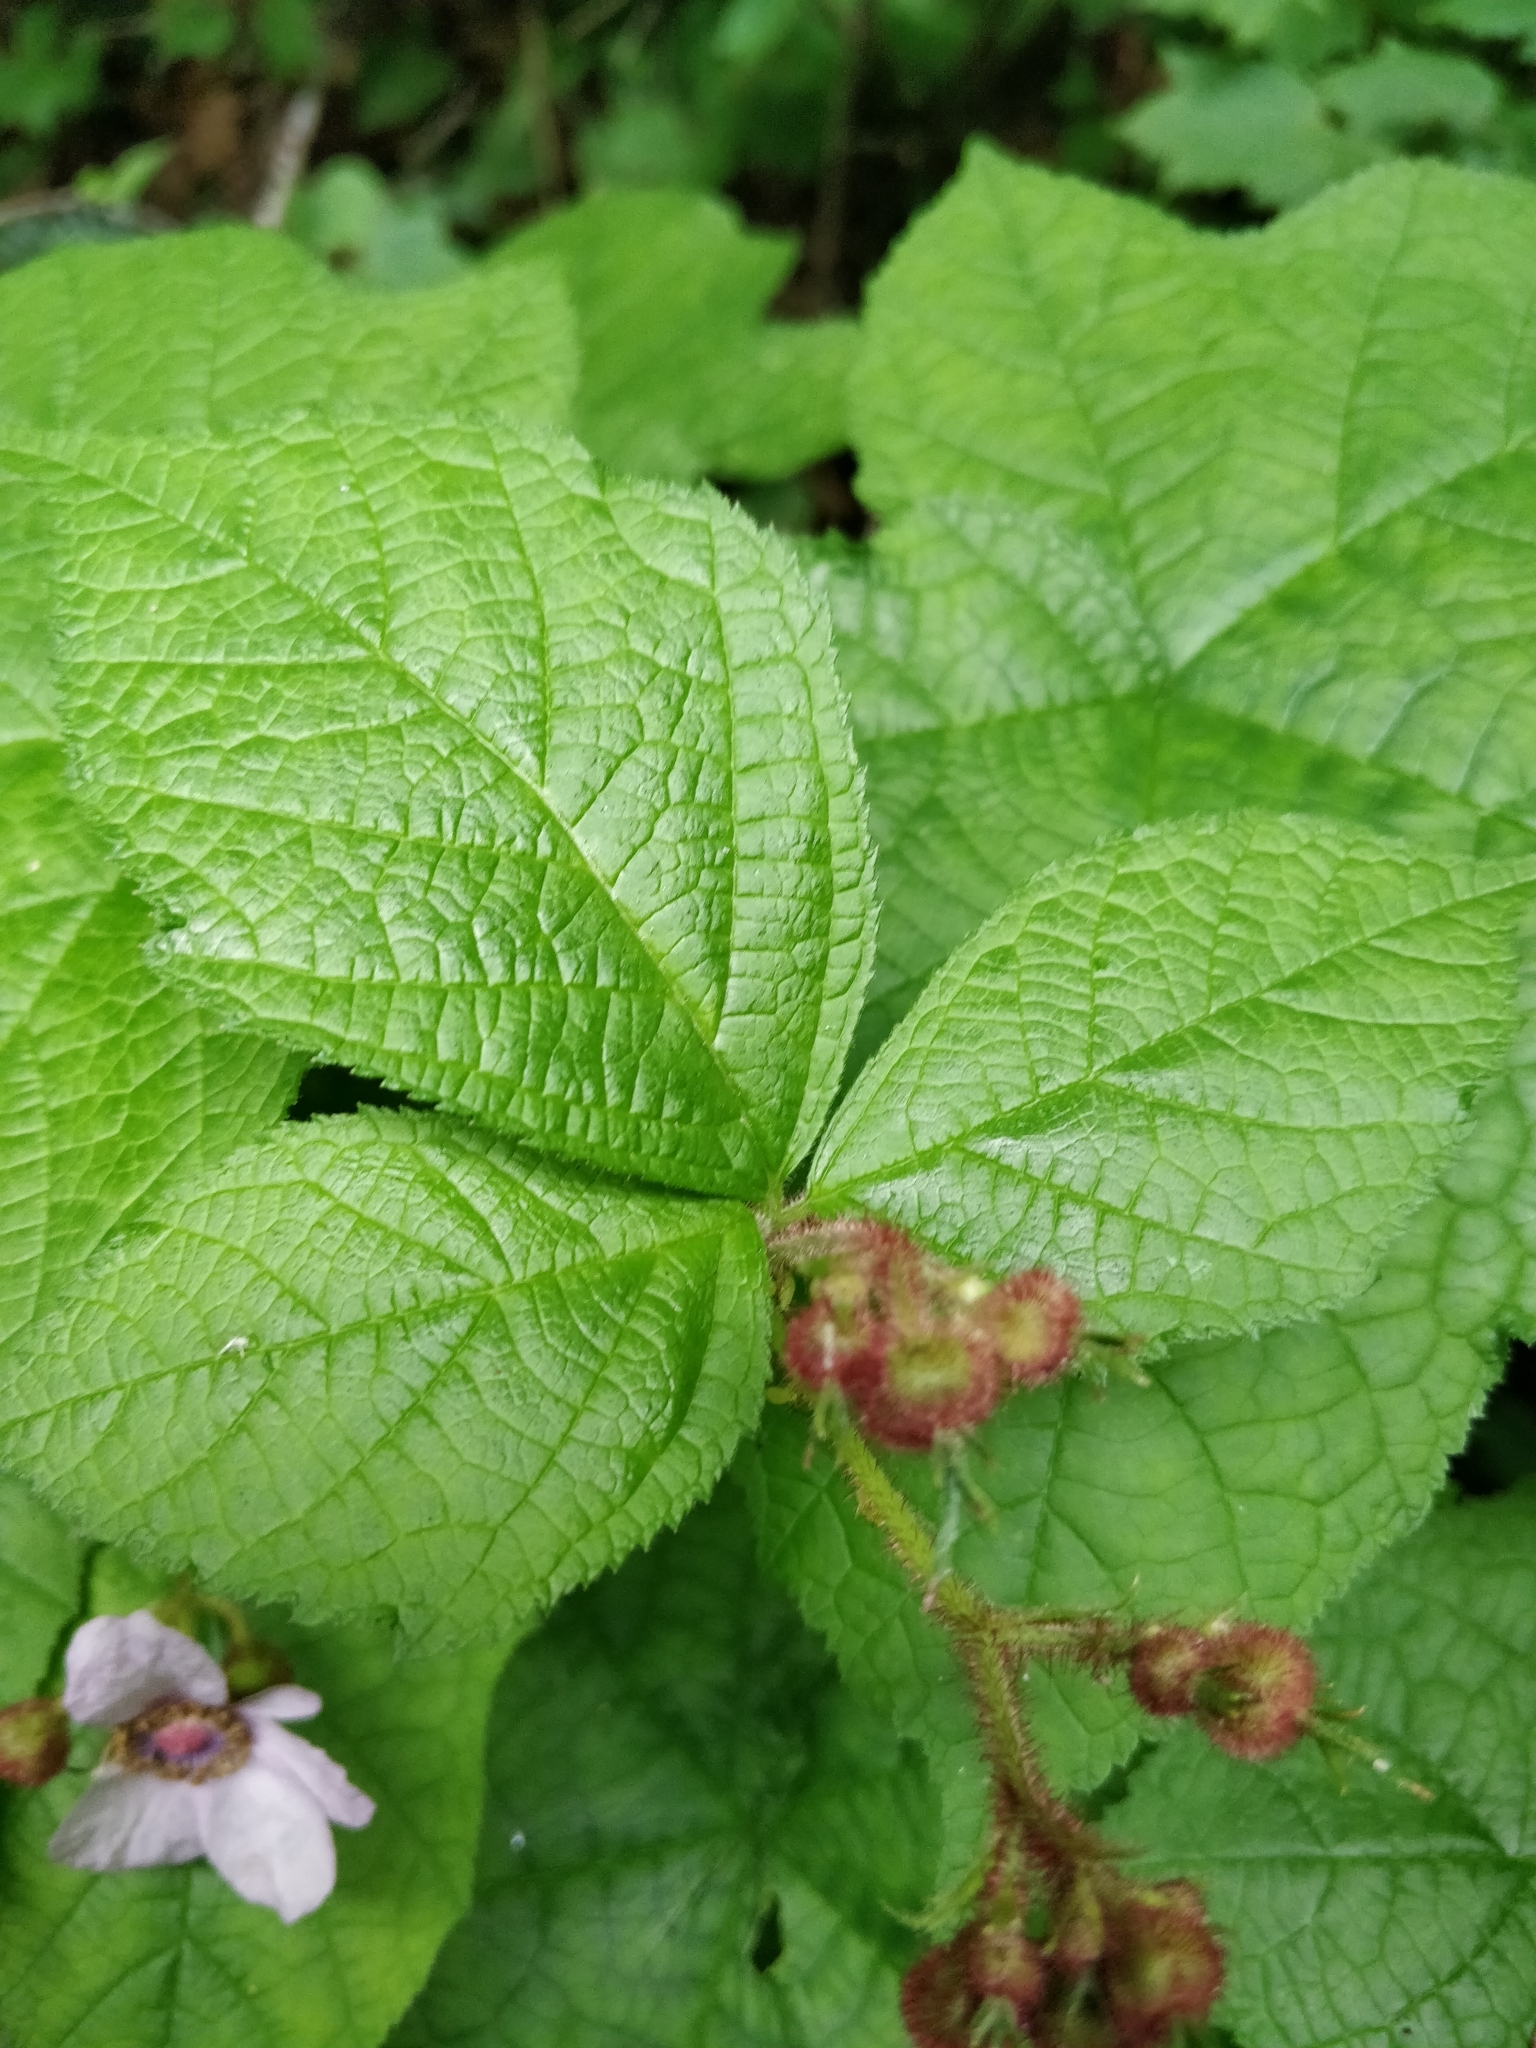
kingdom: Plantae
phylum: Tracheophyta
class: Magnoliopsida
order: Rosales
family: Rosaceae
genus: Rubus
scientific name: Rubus odoratus
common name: Purple-flowered raspberry
